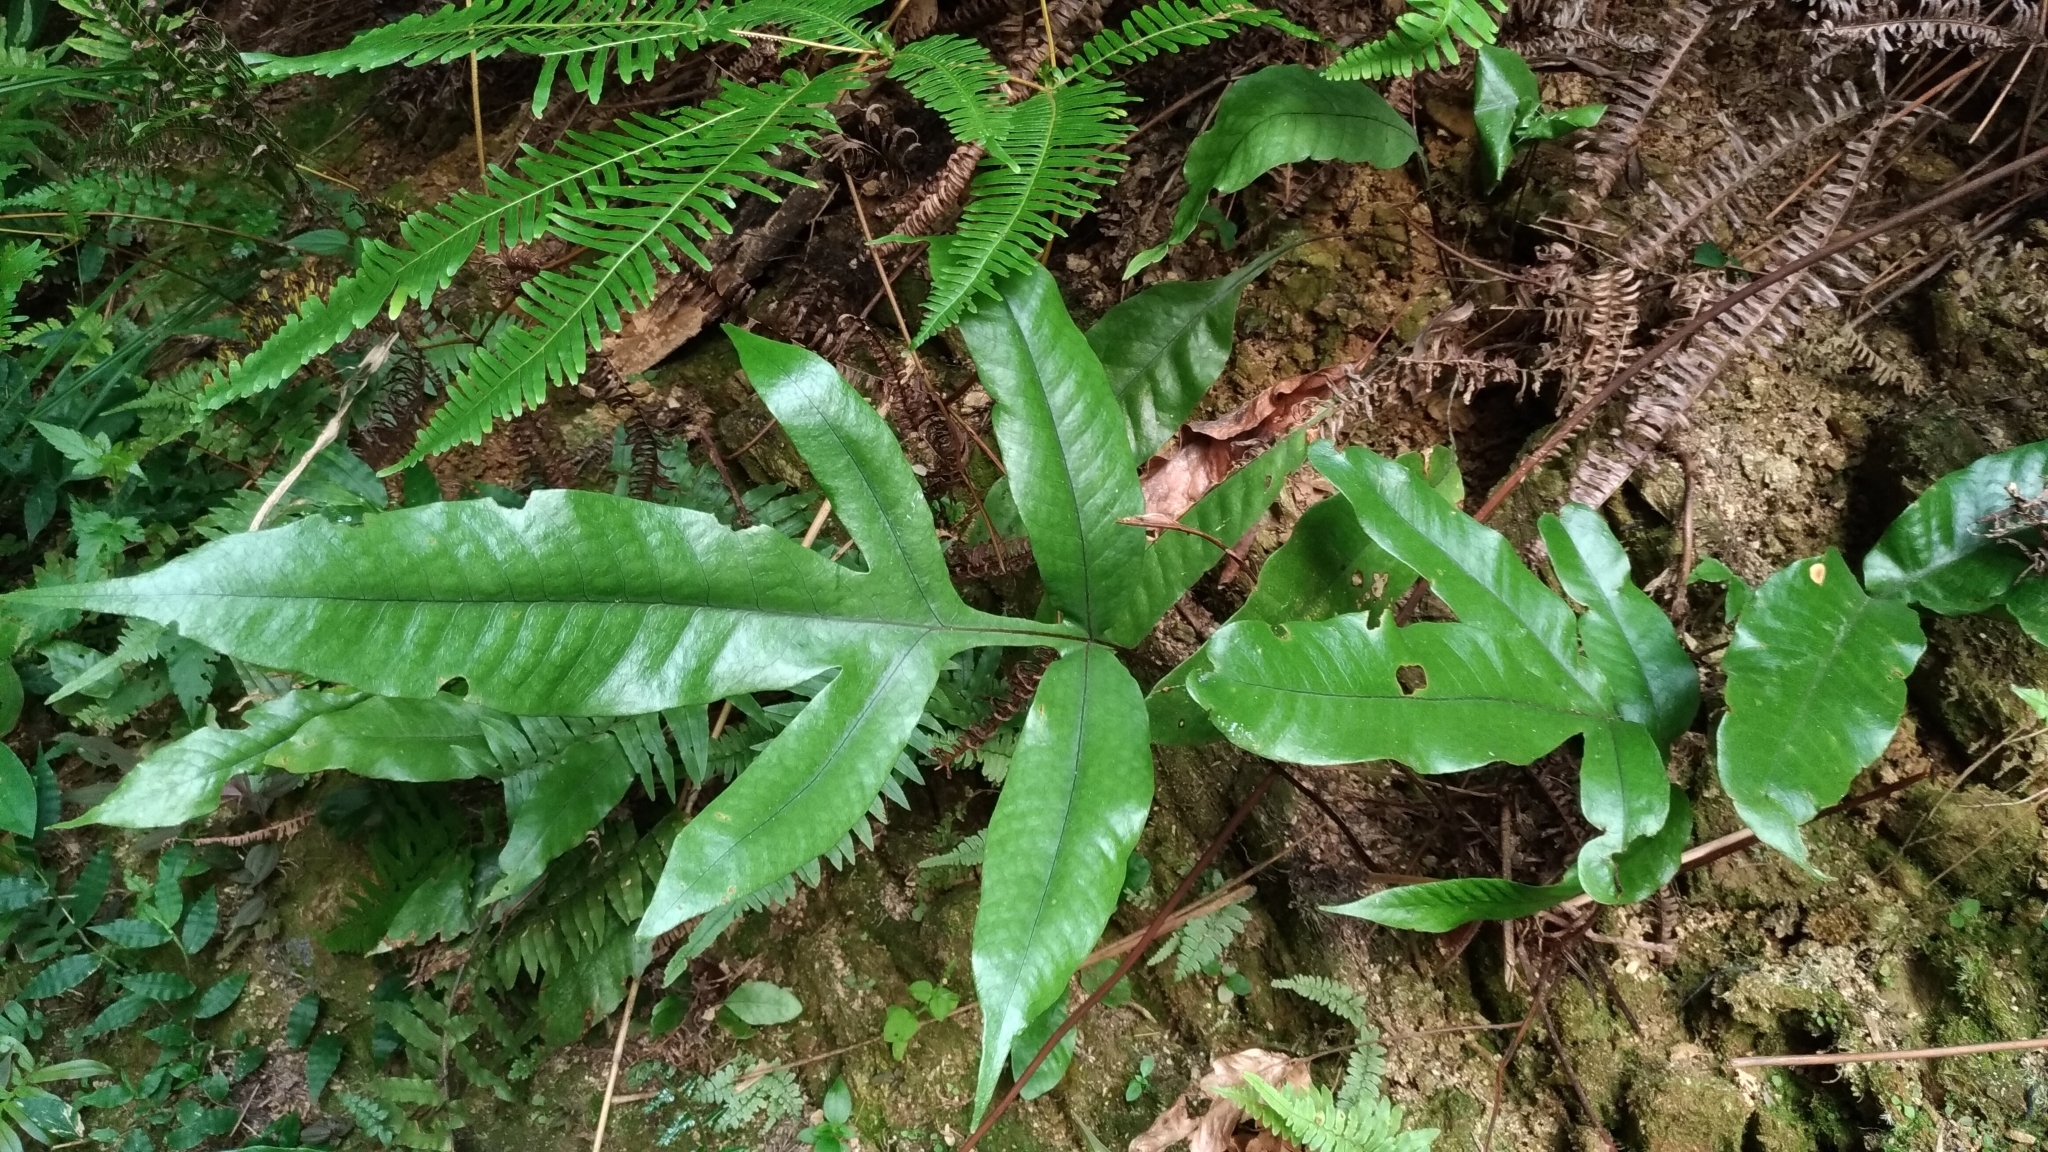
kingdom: Plantae
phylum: Tracheophyta
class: Polypodiopsida
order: Polypodiales
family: Tectariaceae
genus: Tectaria
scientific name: Tectaria harlandii
